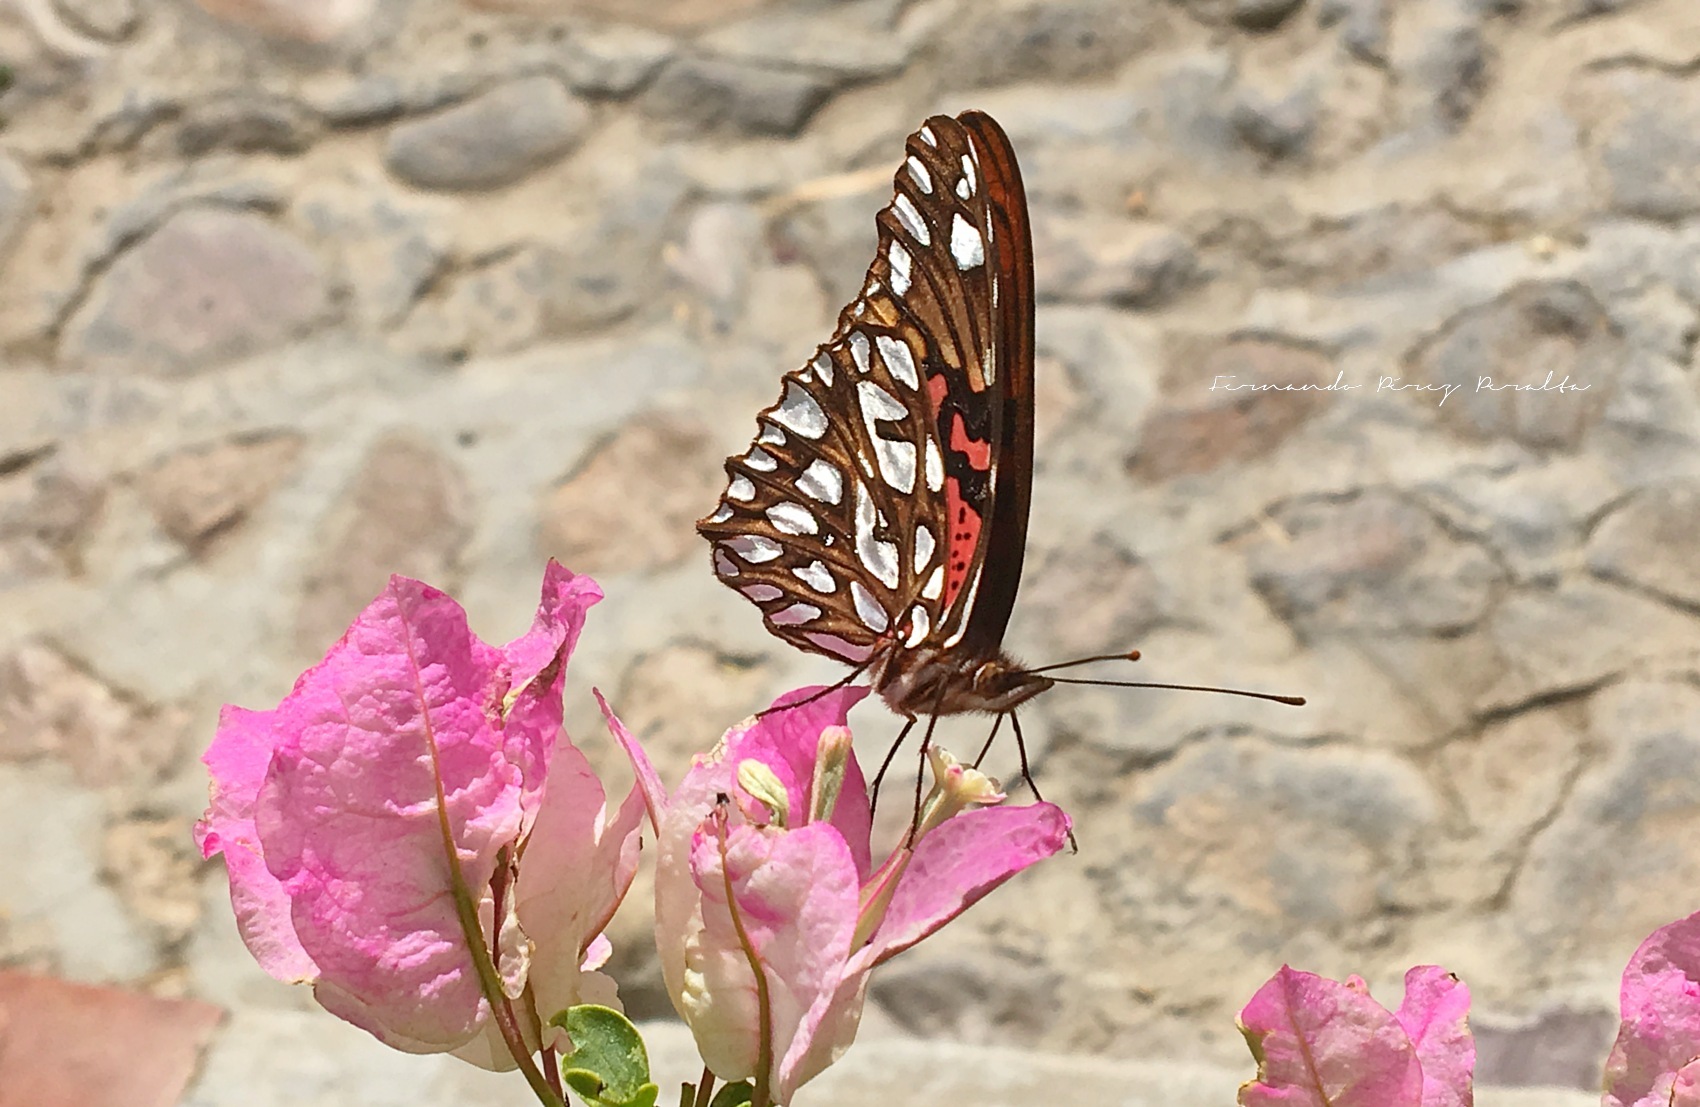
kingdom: Animalia
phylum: Arthropoda
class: Insecta
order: Lepidoptera
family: Nymphalidae
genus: Dione
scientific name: Dione moneta
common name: Mexican silverspot
